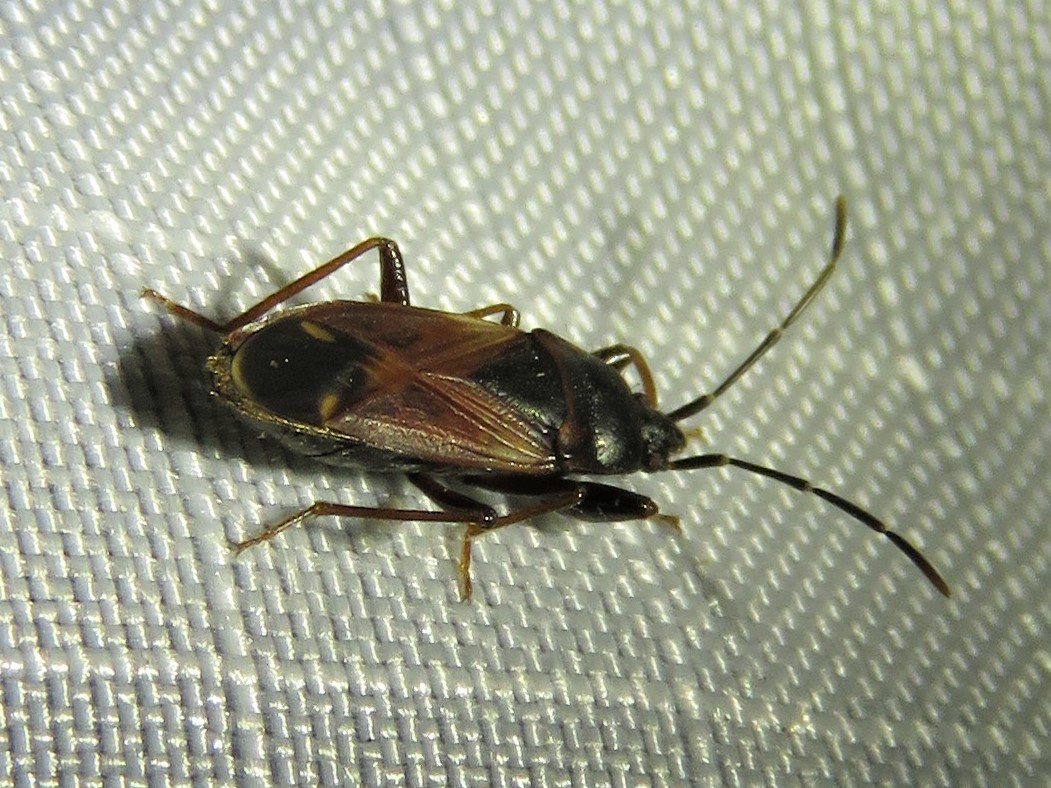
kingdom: Animalia
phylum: Arthropoda
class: Insecta
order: Hemiptera
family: Rhyparochromidae
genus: Eremocoris
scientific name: Eremocoris depressus
